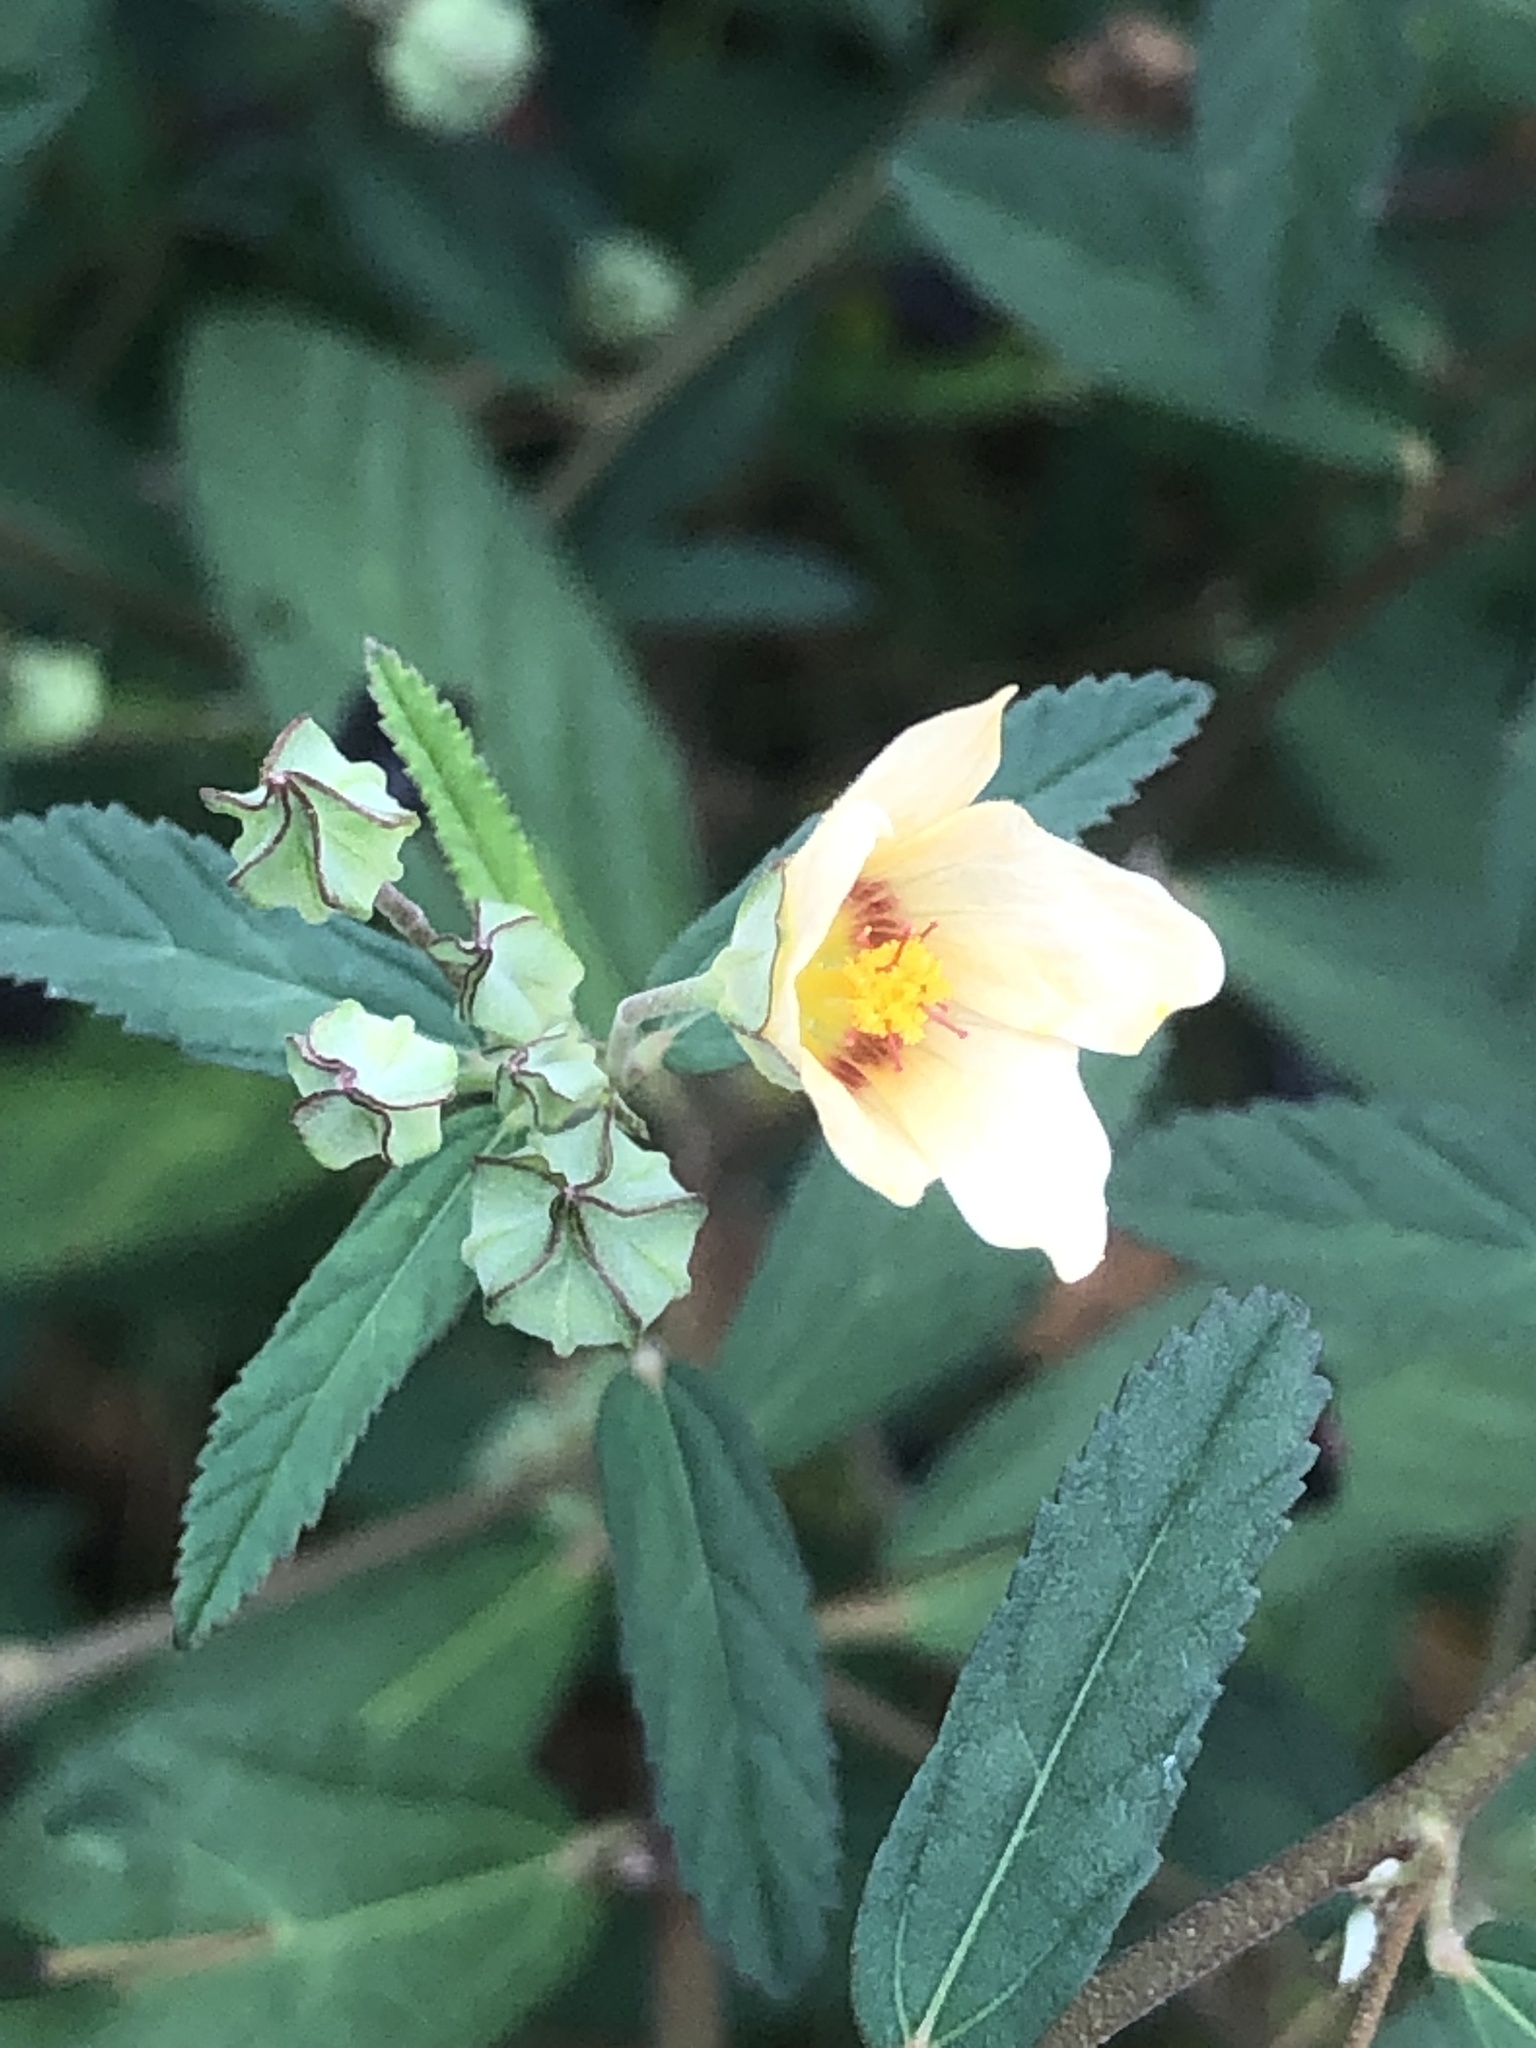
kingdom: Plantae
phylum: Tracheophyta
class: Magnoliopsida
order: Malvales
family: Malvaceae
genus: Sida
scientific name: Sida rhombifolia
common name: Queensland-hemp
